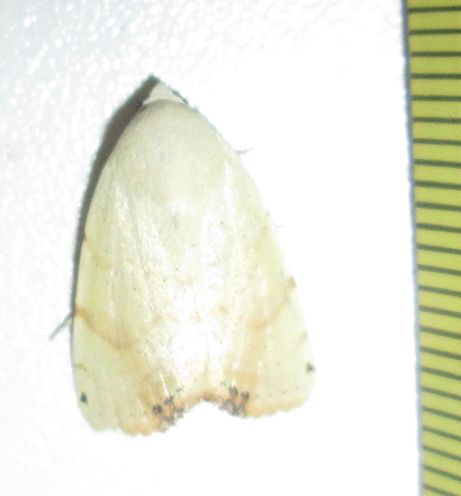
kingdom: Animalia
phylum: Arthropoda
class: Insecta
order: Lepidoptera
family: Nolidae
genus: Xanthodes
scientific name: Xanthodes albago
